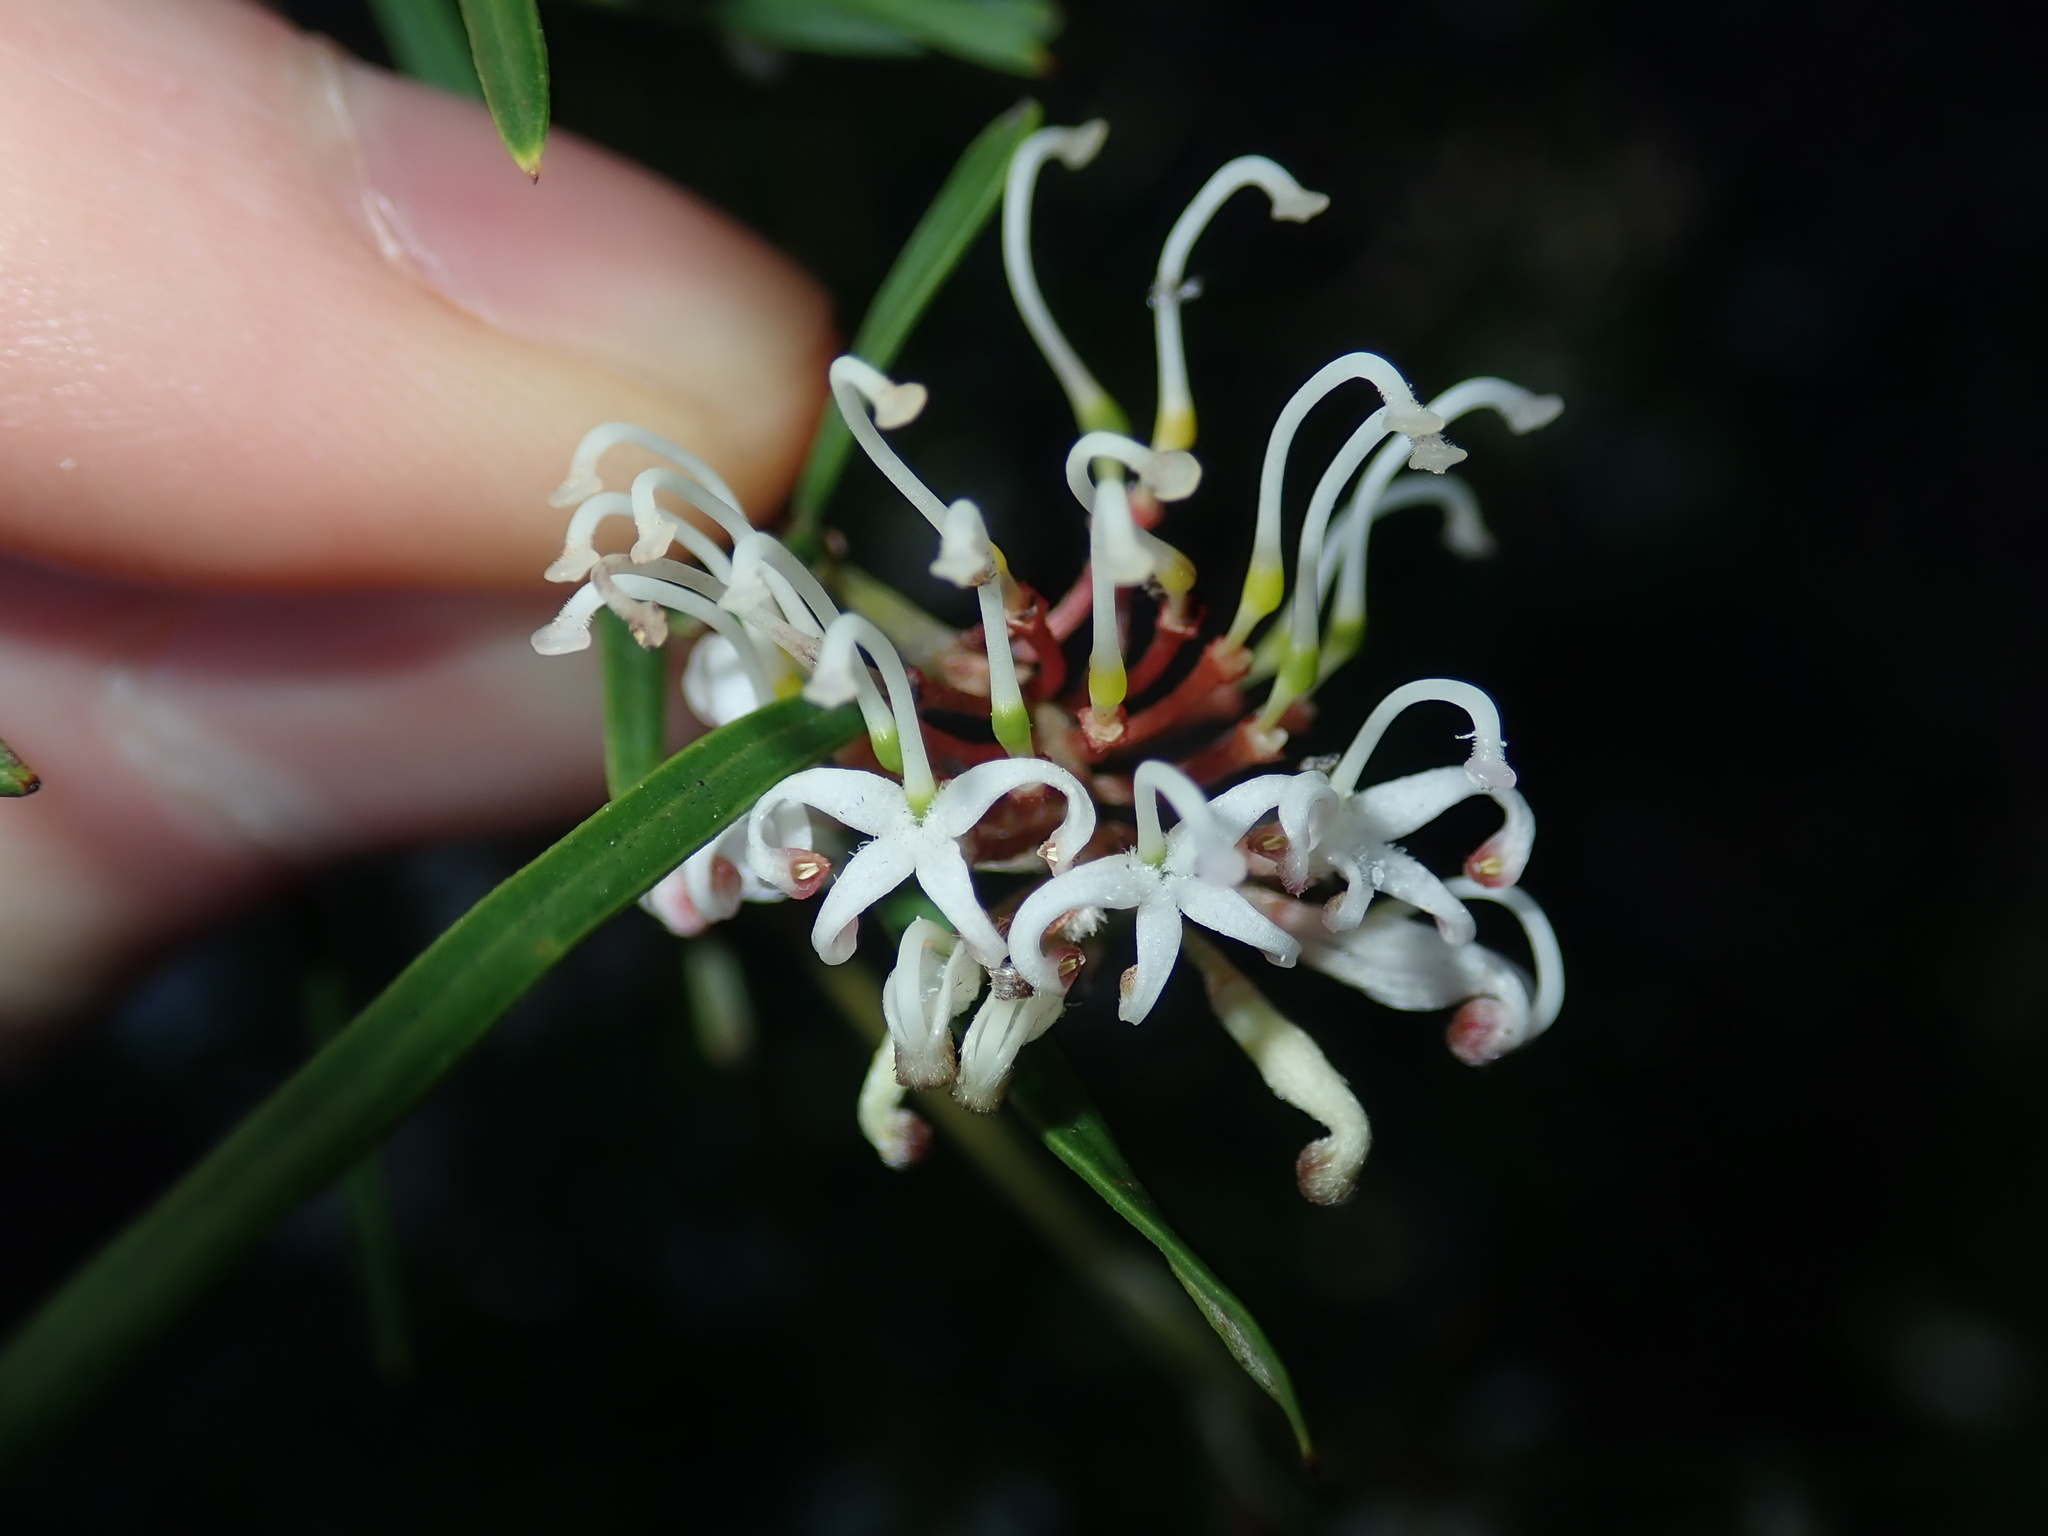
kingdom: Plantae
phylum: Tracheophyta
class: Magnoliopsida
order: Proteales
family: Proteaceae
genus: Grevillea
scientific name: Grevillea linearifolia
